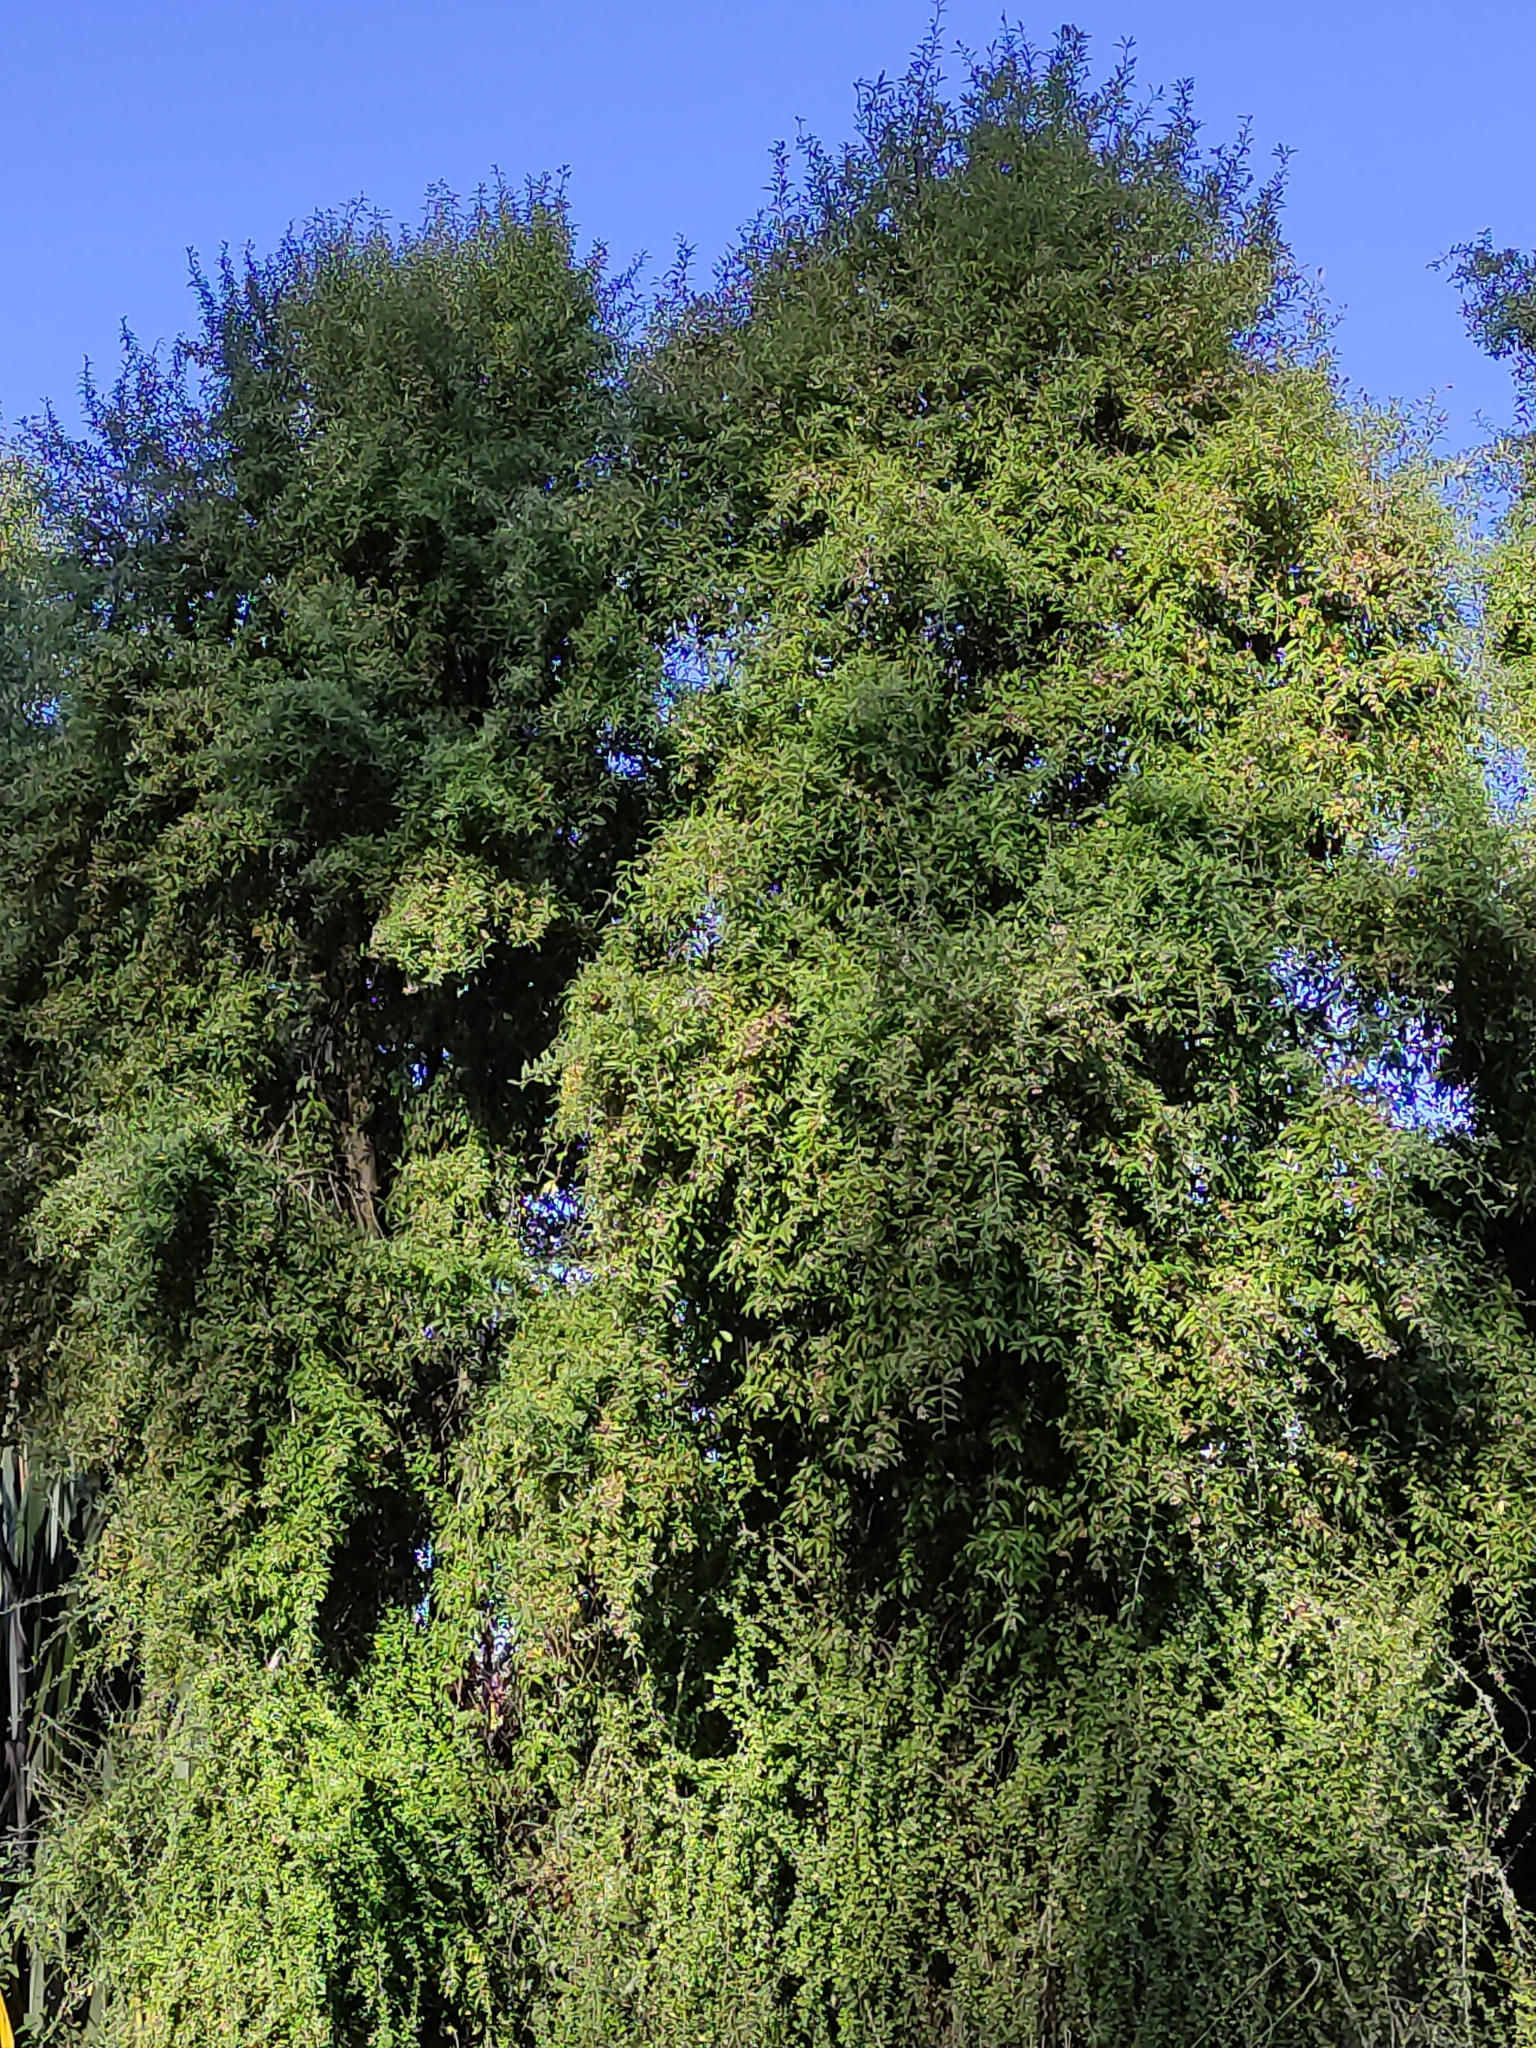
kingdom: Plantae
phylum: Tracheophyta
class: Magnoliopsida
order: Malvales
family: Malvaceae
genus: Hoheria
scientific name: Hoheria angustifolia
